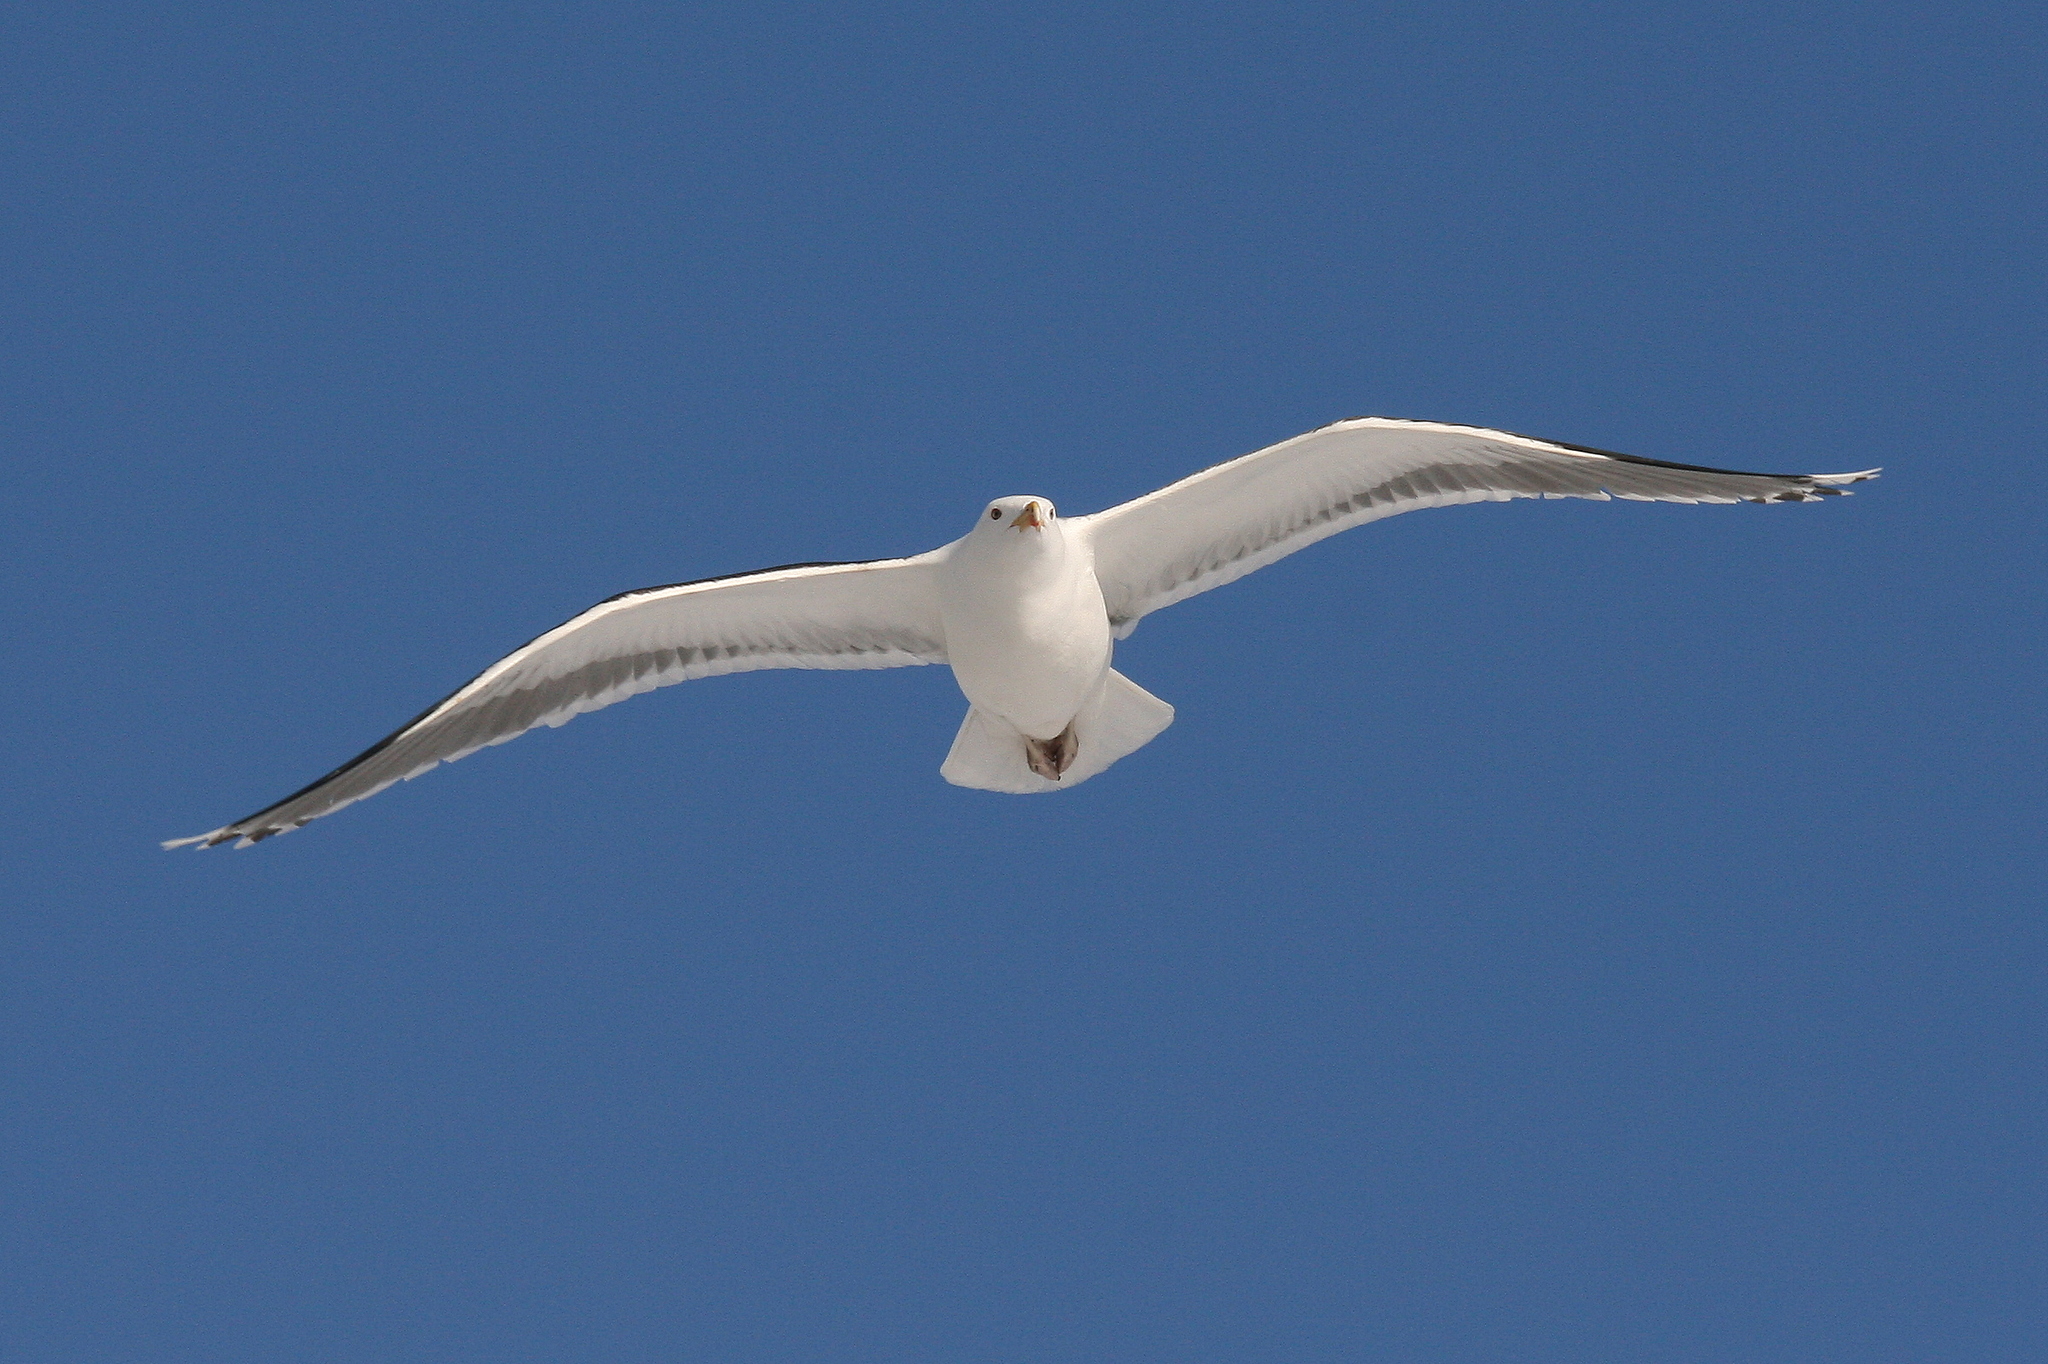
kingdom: Animalia
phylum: Chordata
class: Aves
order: Charadriiformes
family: Laridae
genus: Larus
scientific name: Larus marinus
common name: Great black-backed gull
